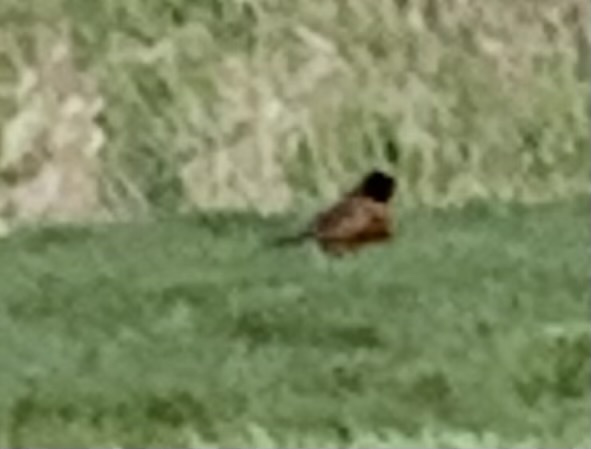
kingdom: Animalia
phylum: Chordata
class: Aves
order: Passeriformes
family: Turdidae
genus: Turdus
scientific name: Turdus migratorius
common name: American robin
